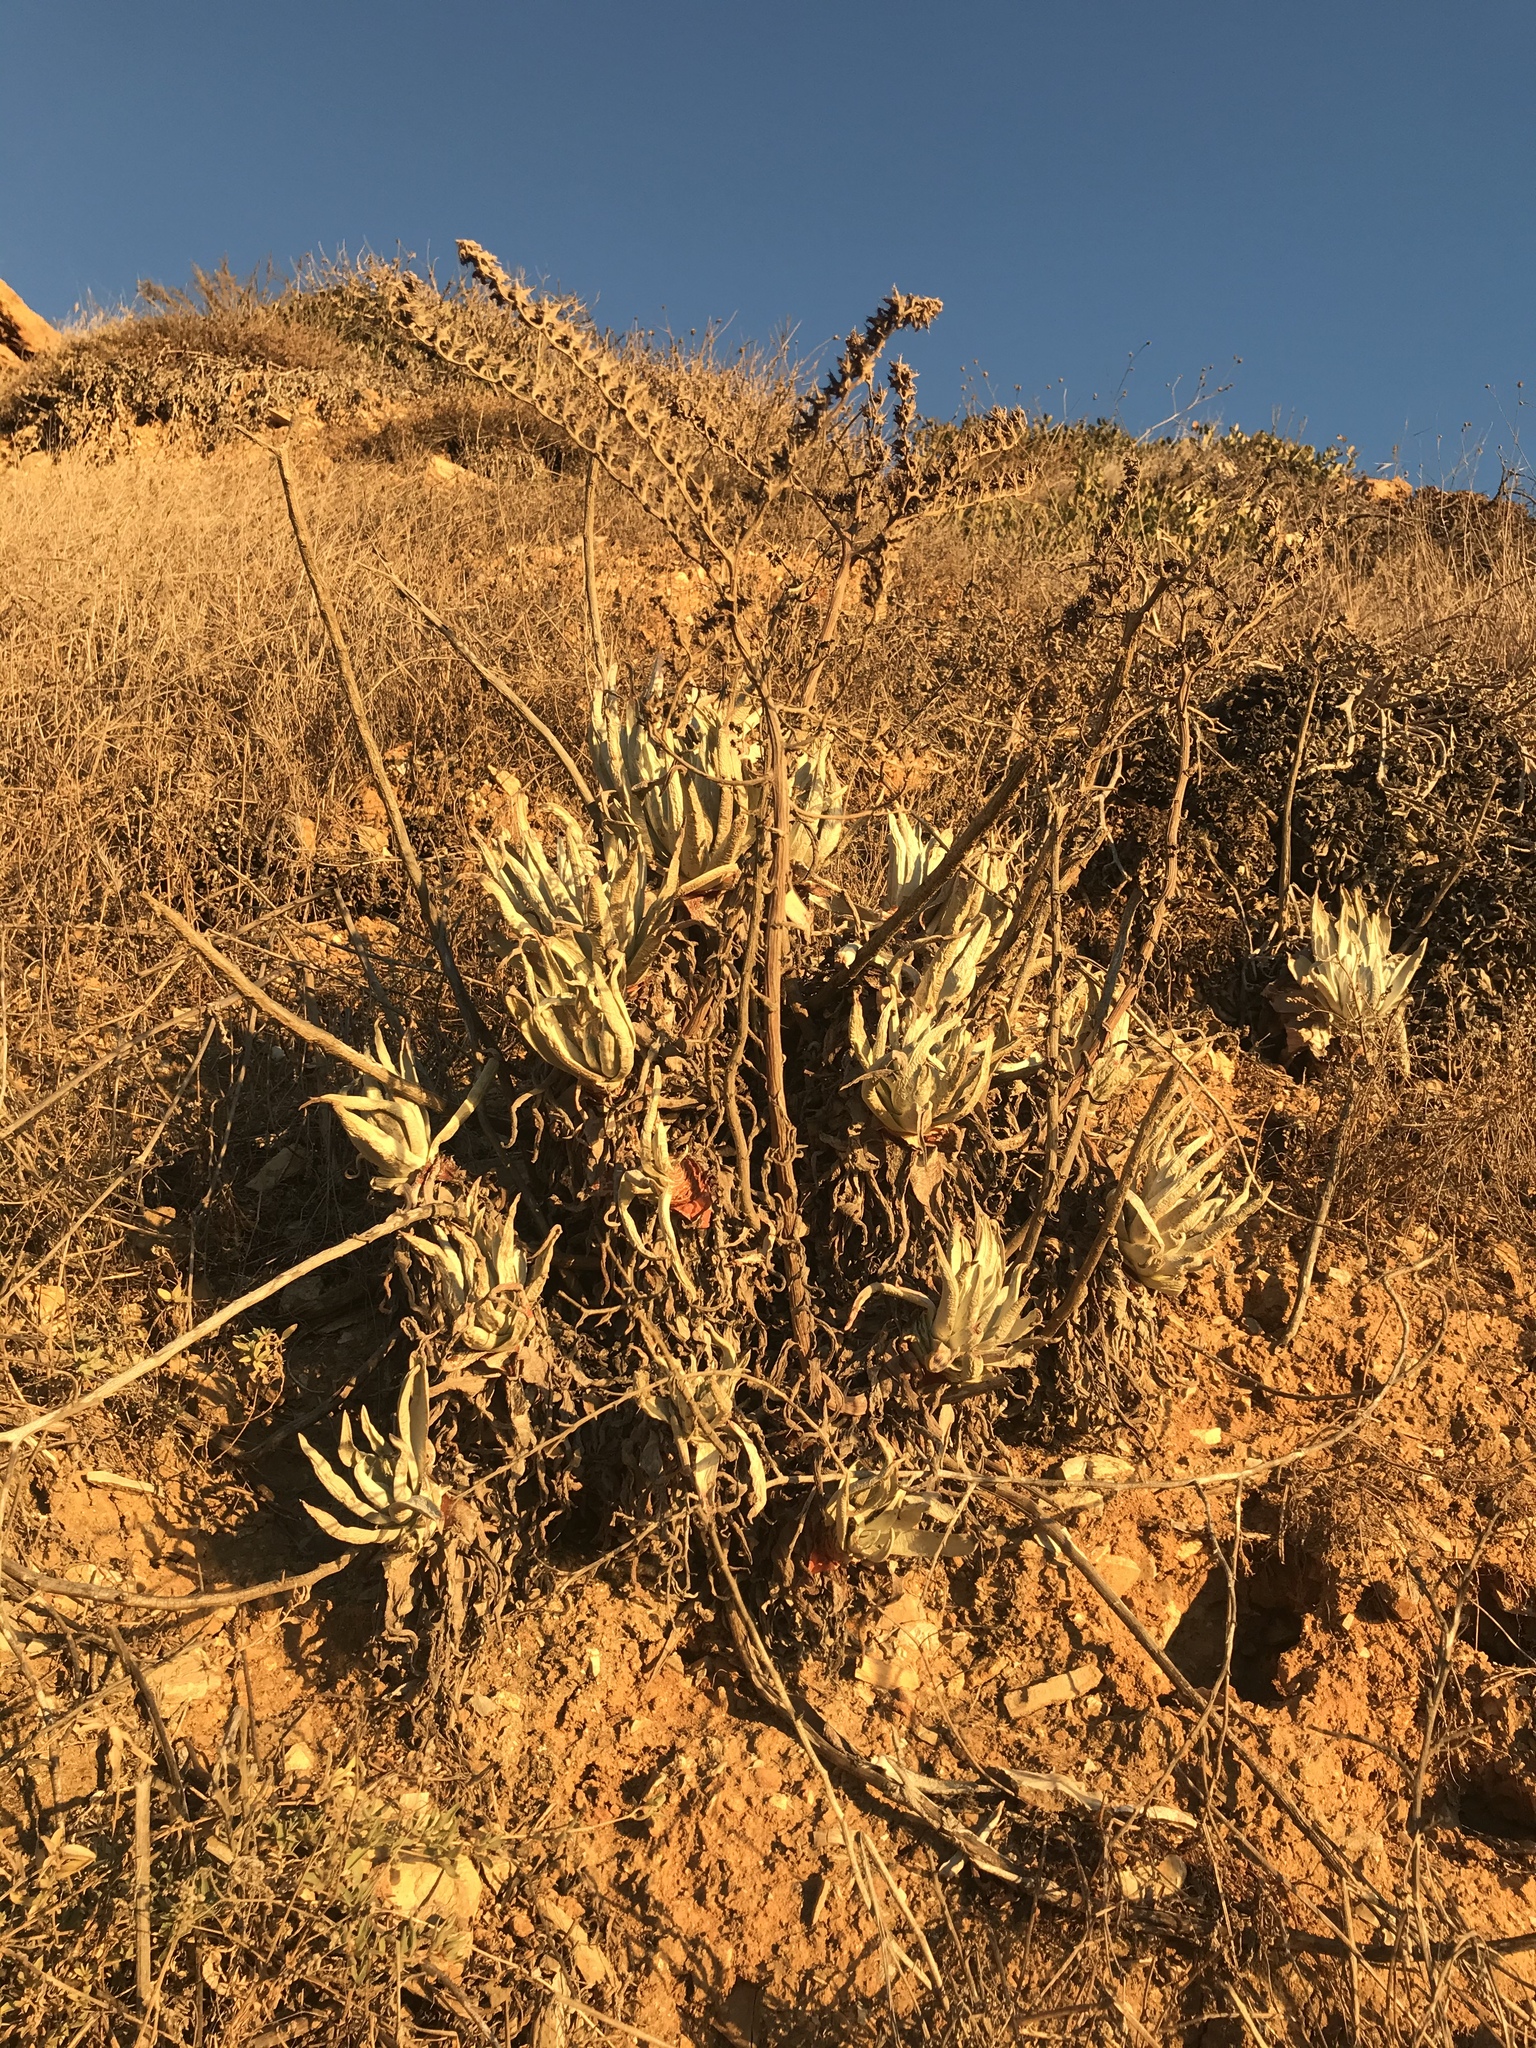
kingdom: Plantae
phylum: Tracheophyta
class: Magnoliopsida
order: Saxifragales
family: Crassulaceae
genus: Dudleya
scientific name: Dudleya virens
